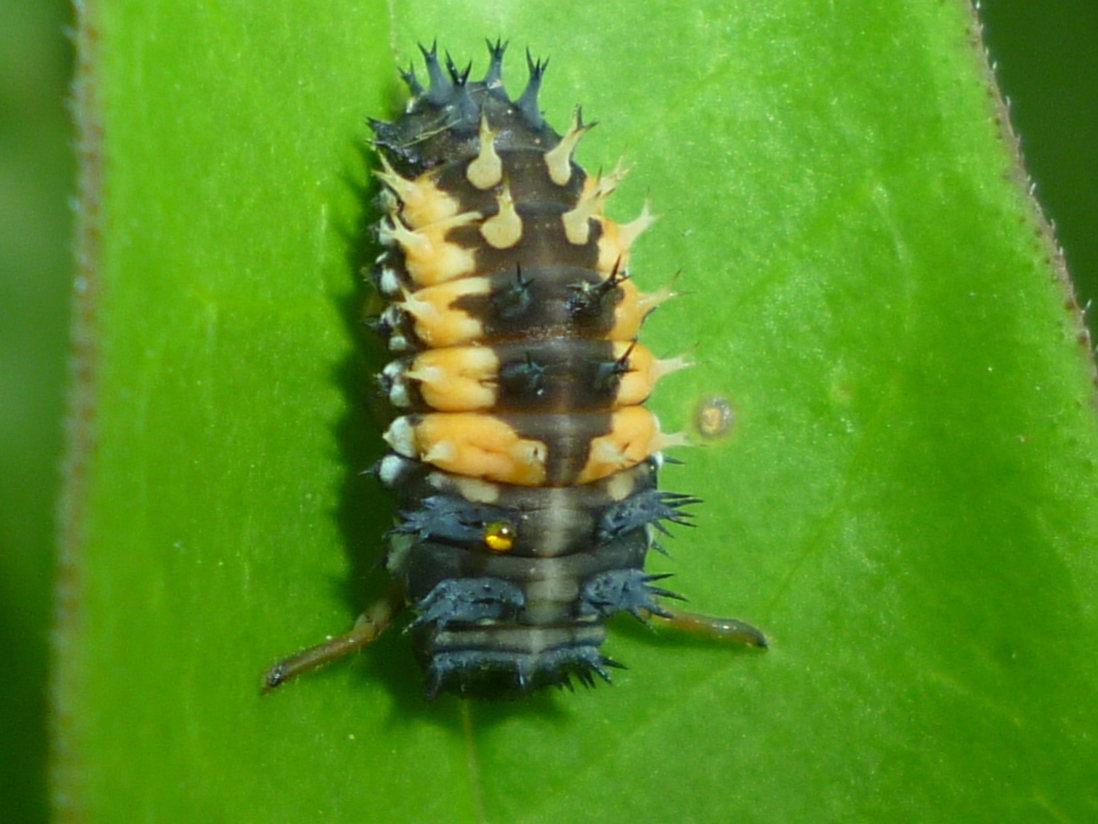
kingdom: Animalia
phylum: Arthropoda
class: Insecta
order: Coleoptera
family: Coccinellidae
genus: Harmonia
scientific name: Harmonia axyridis
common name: Harlequin ladybird
